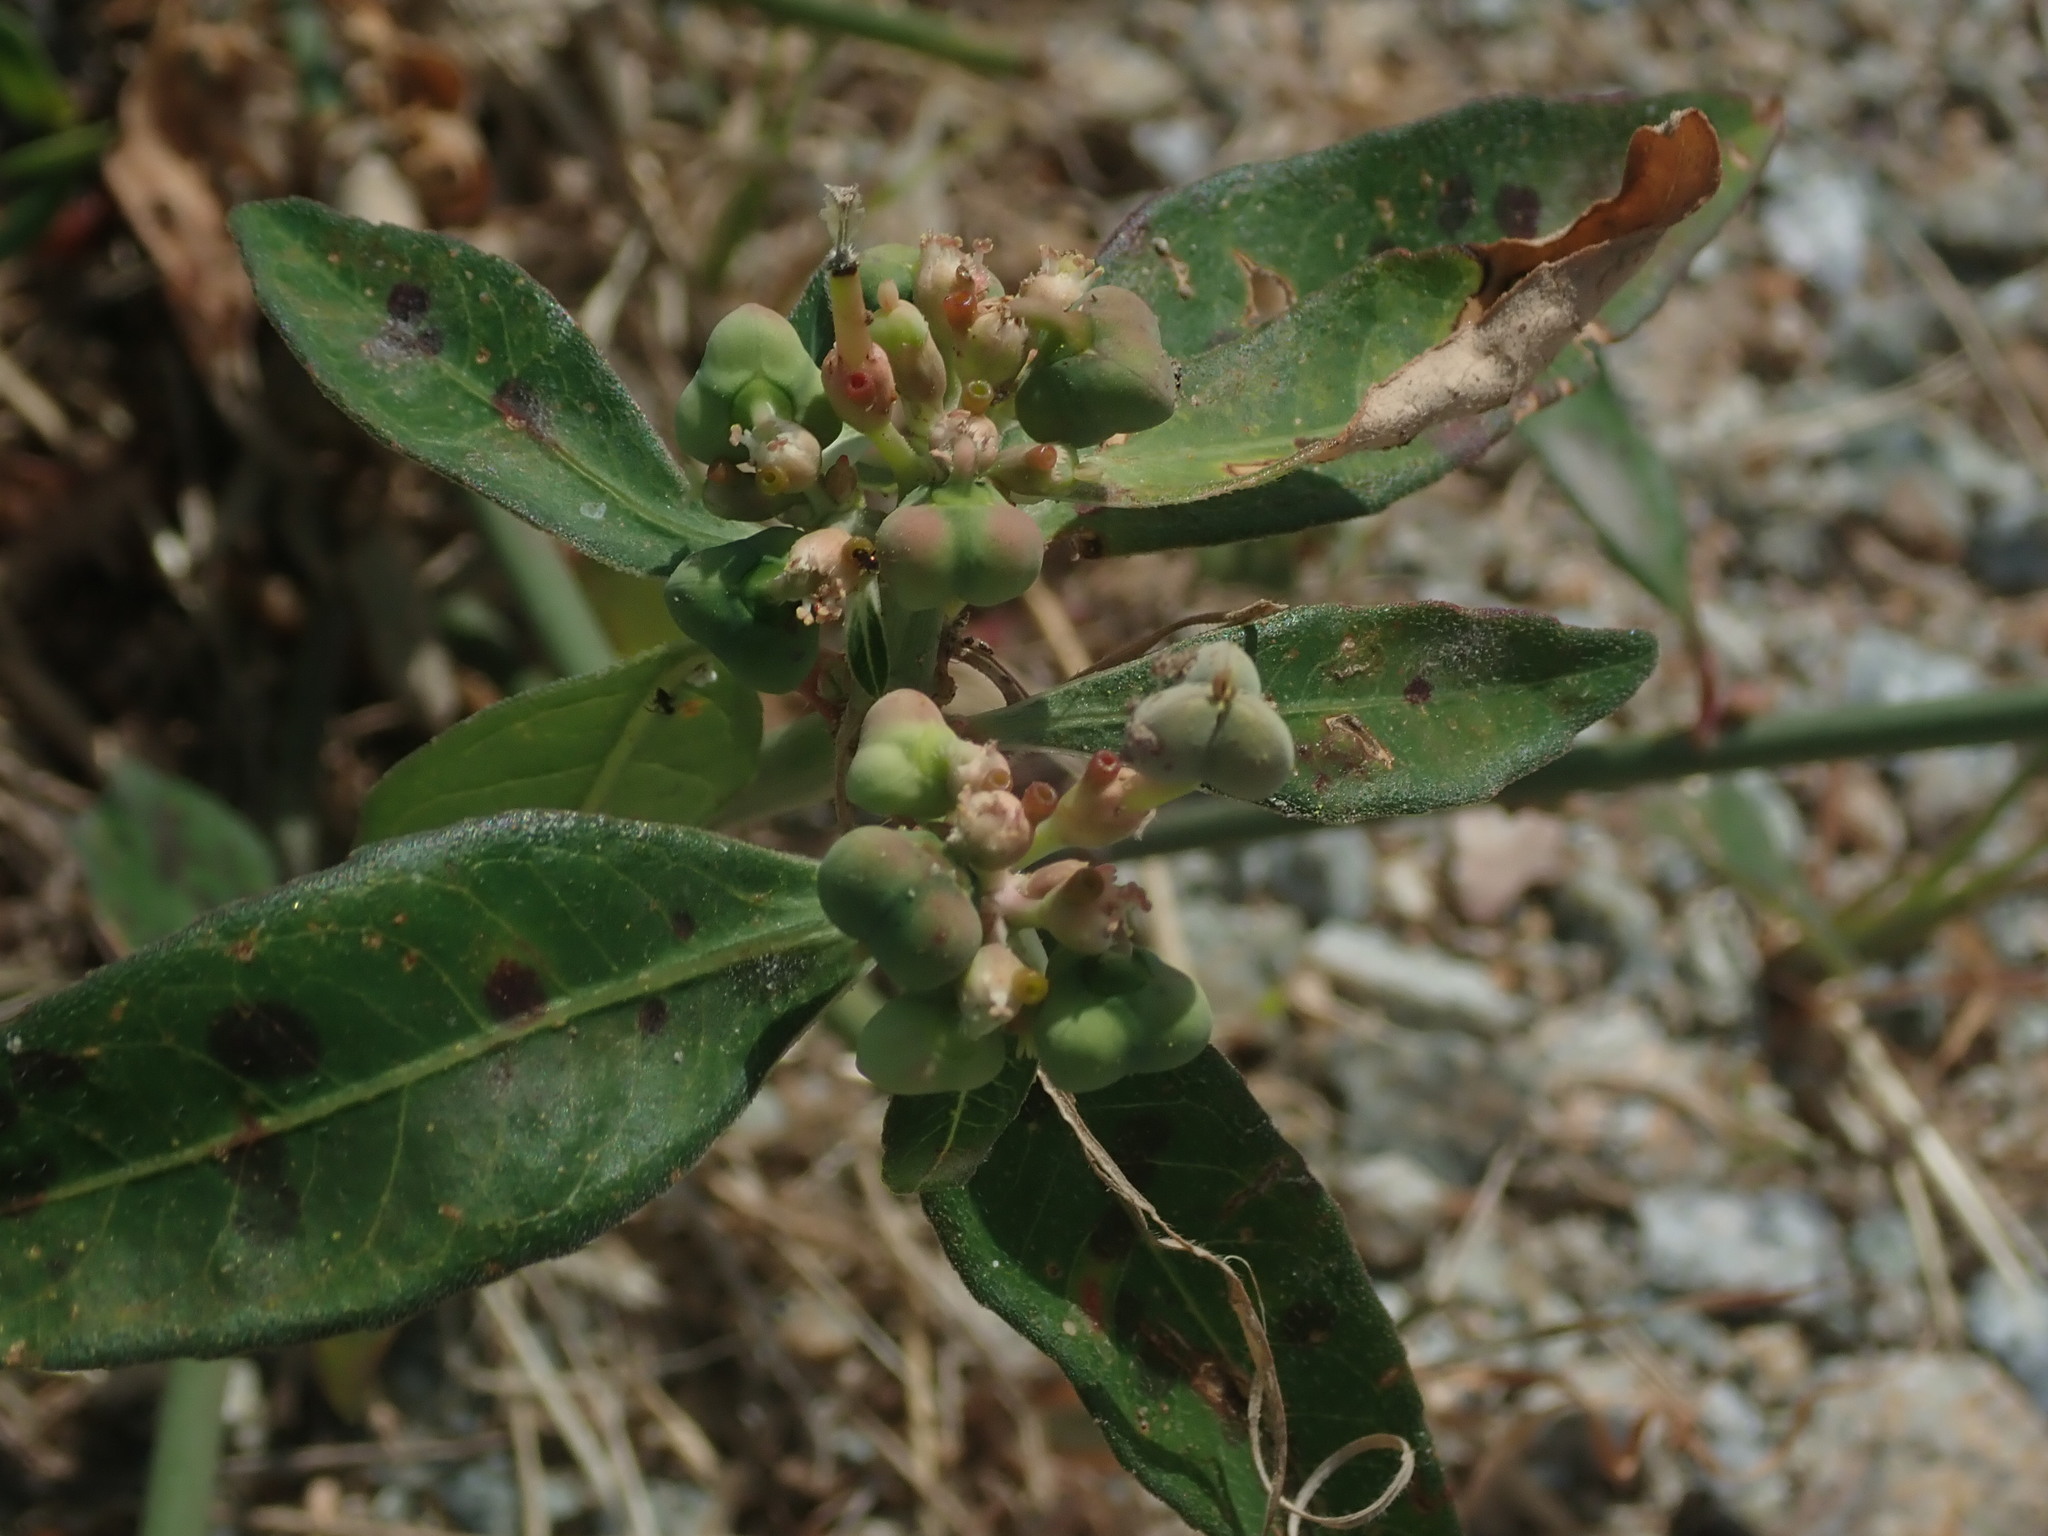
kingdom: Plantae
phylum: Tracheophyta
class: Magnoliopsida
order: Malpighiales
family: Euphorbiaceae
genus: Euphorbia
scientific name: Euphorbia heterophylla
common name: Mexican fireplant
